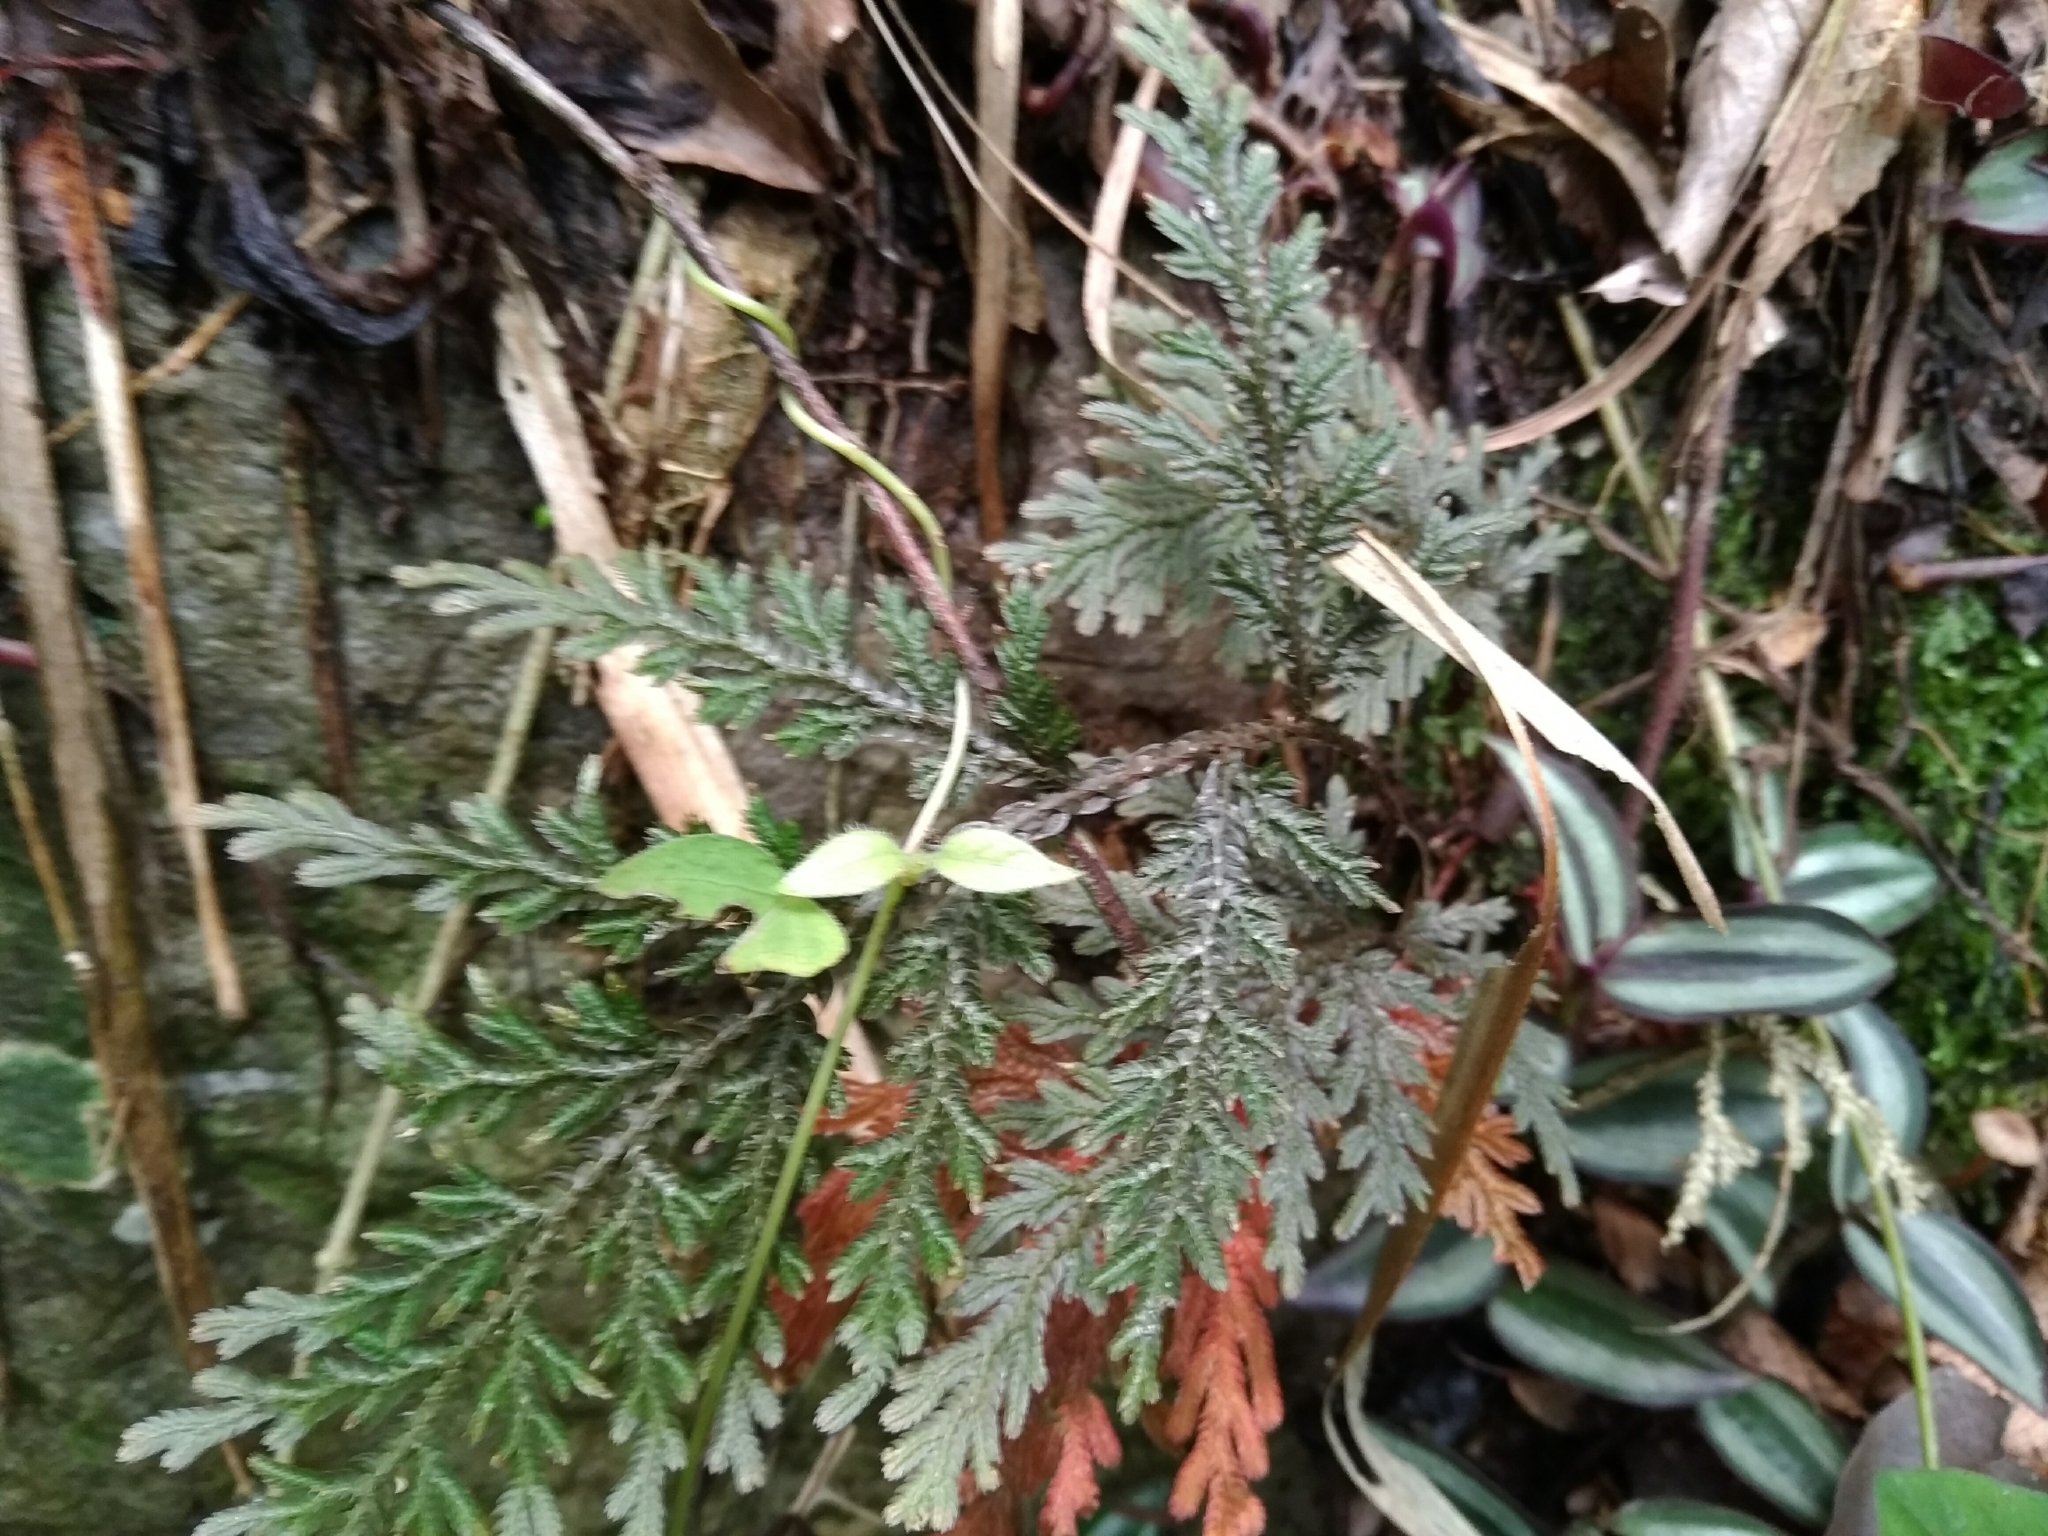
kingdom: Plantae
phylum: Tracheophyta
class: Lycopodiopsida
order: Selaginellales
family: Selaginellaceae
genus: Selaginella
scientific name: Selaginella moellendorffii
